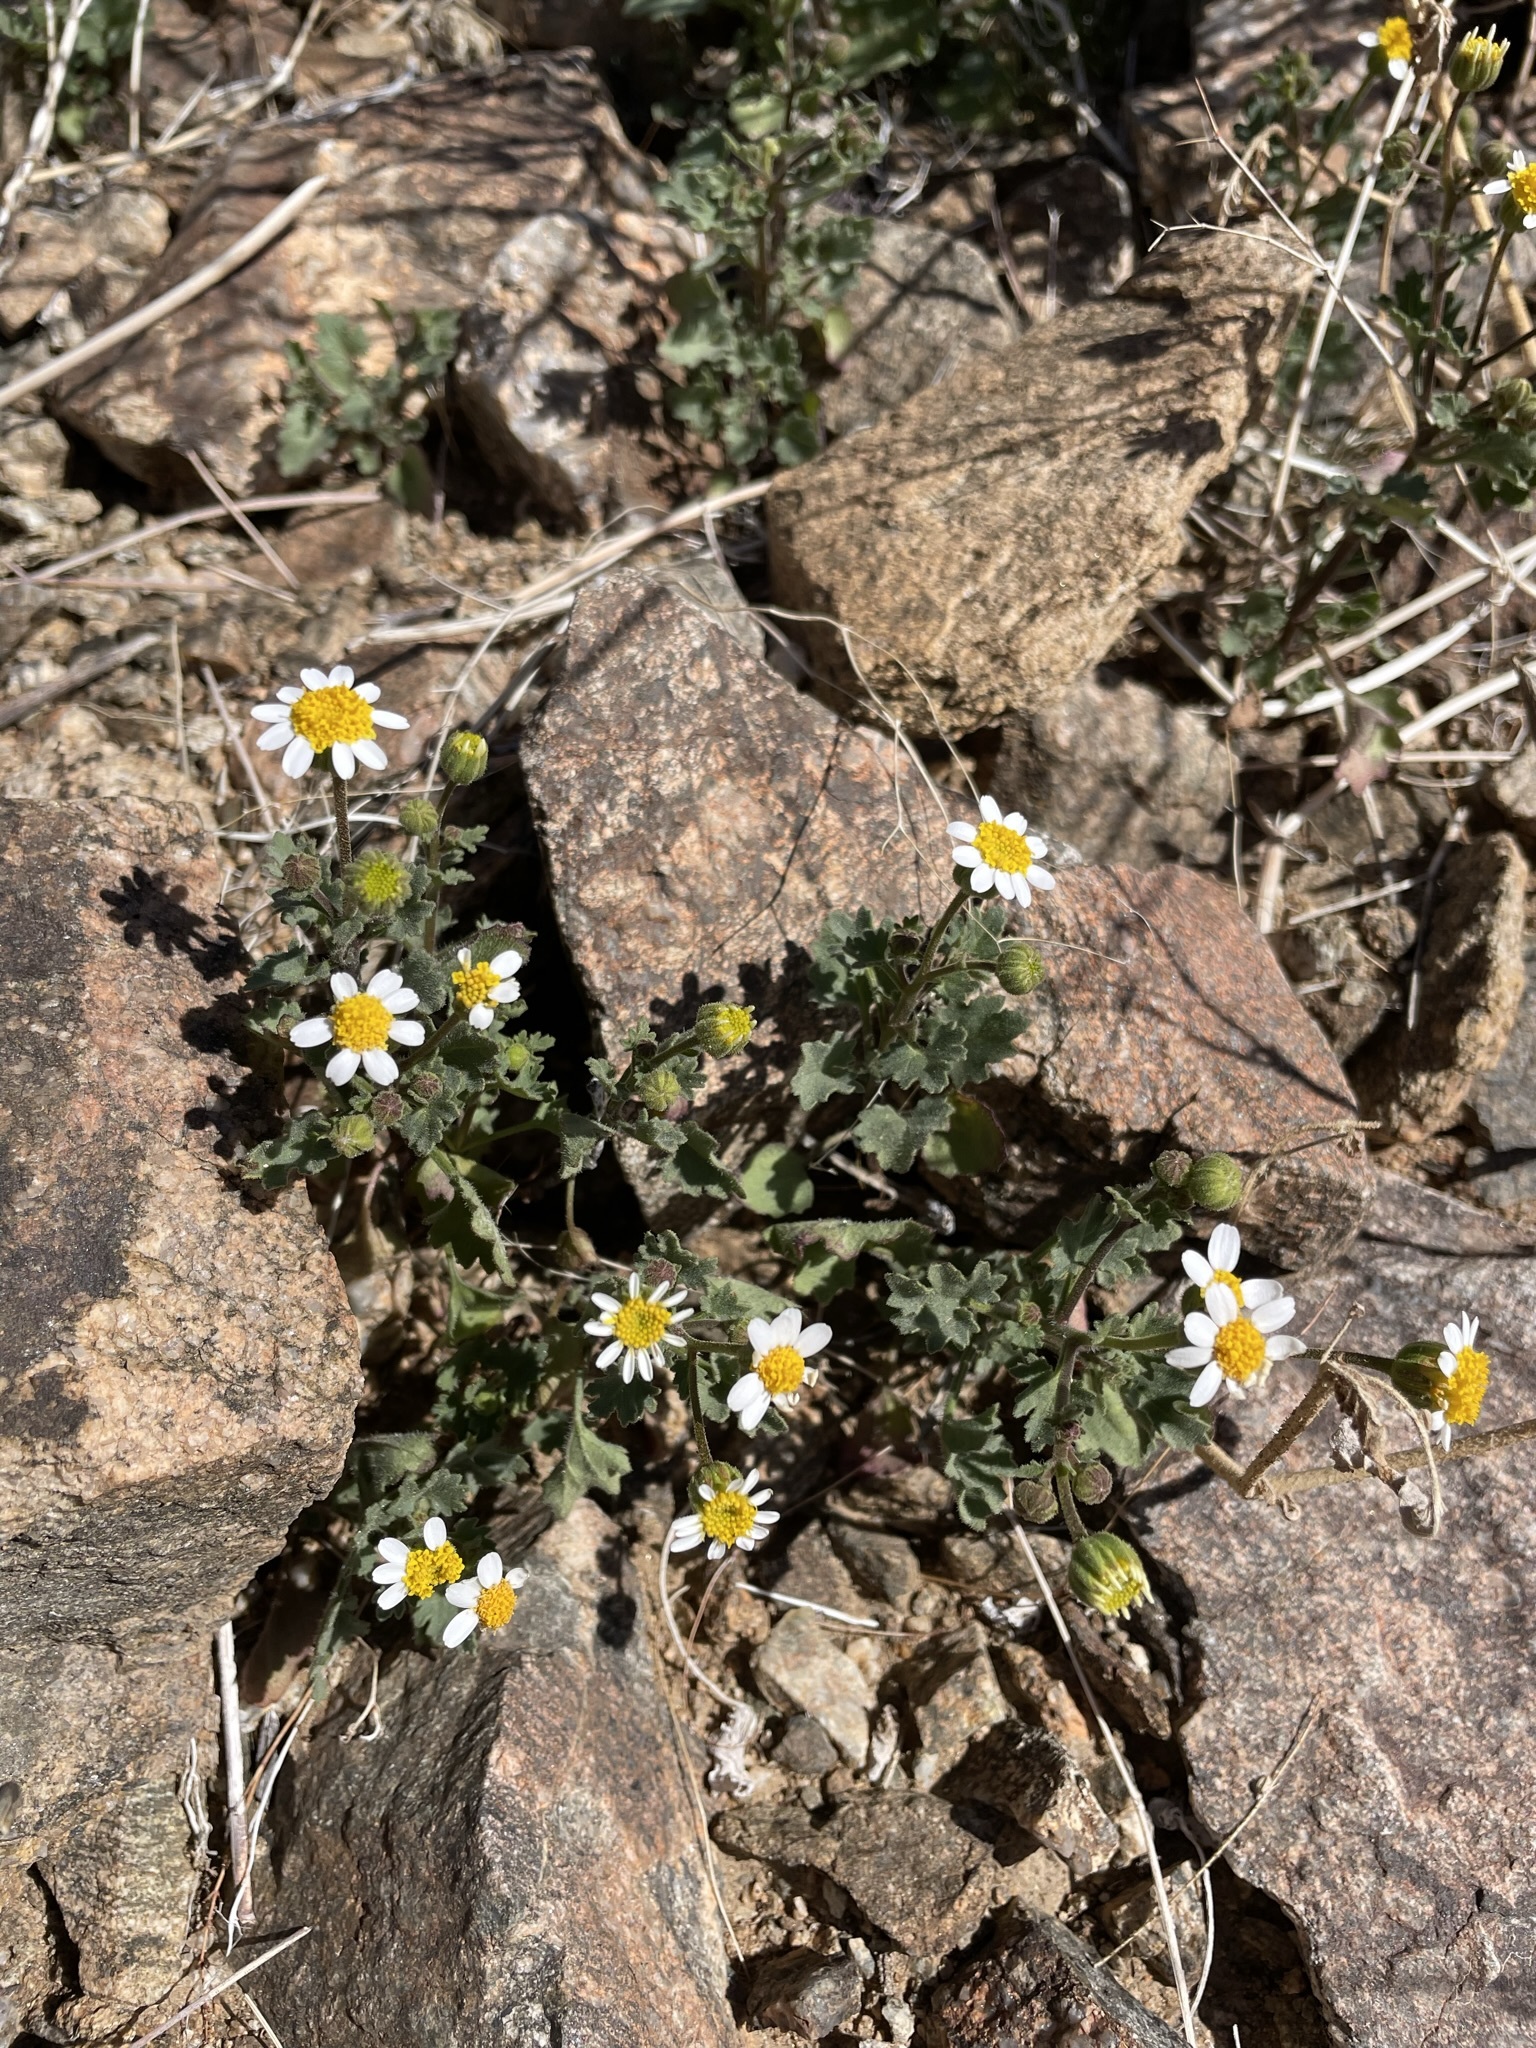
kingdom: Plantae
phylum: Tracheophyta
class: Magnoliopsida
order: Asterales
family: Asteraceae
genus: Laphamia
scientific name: Laphamia emoryi
